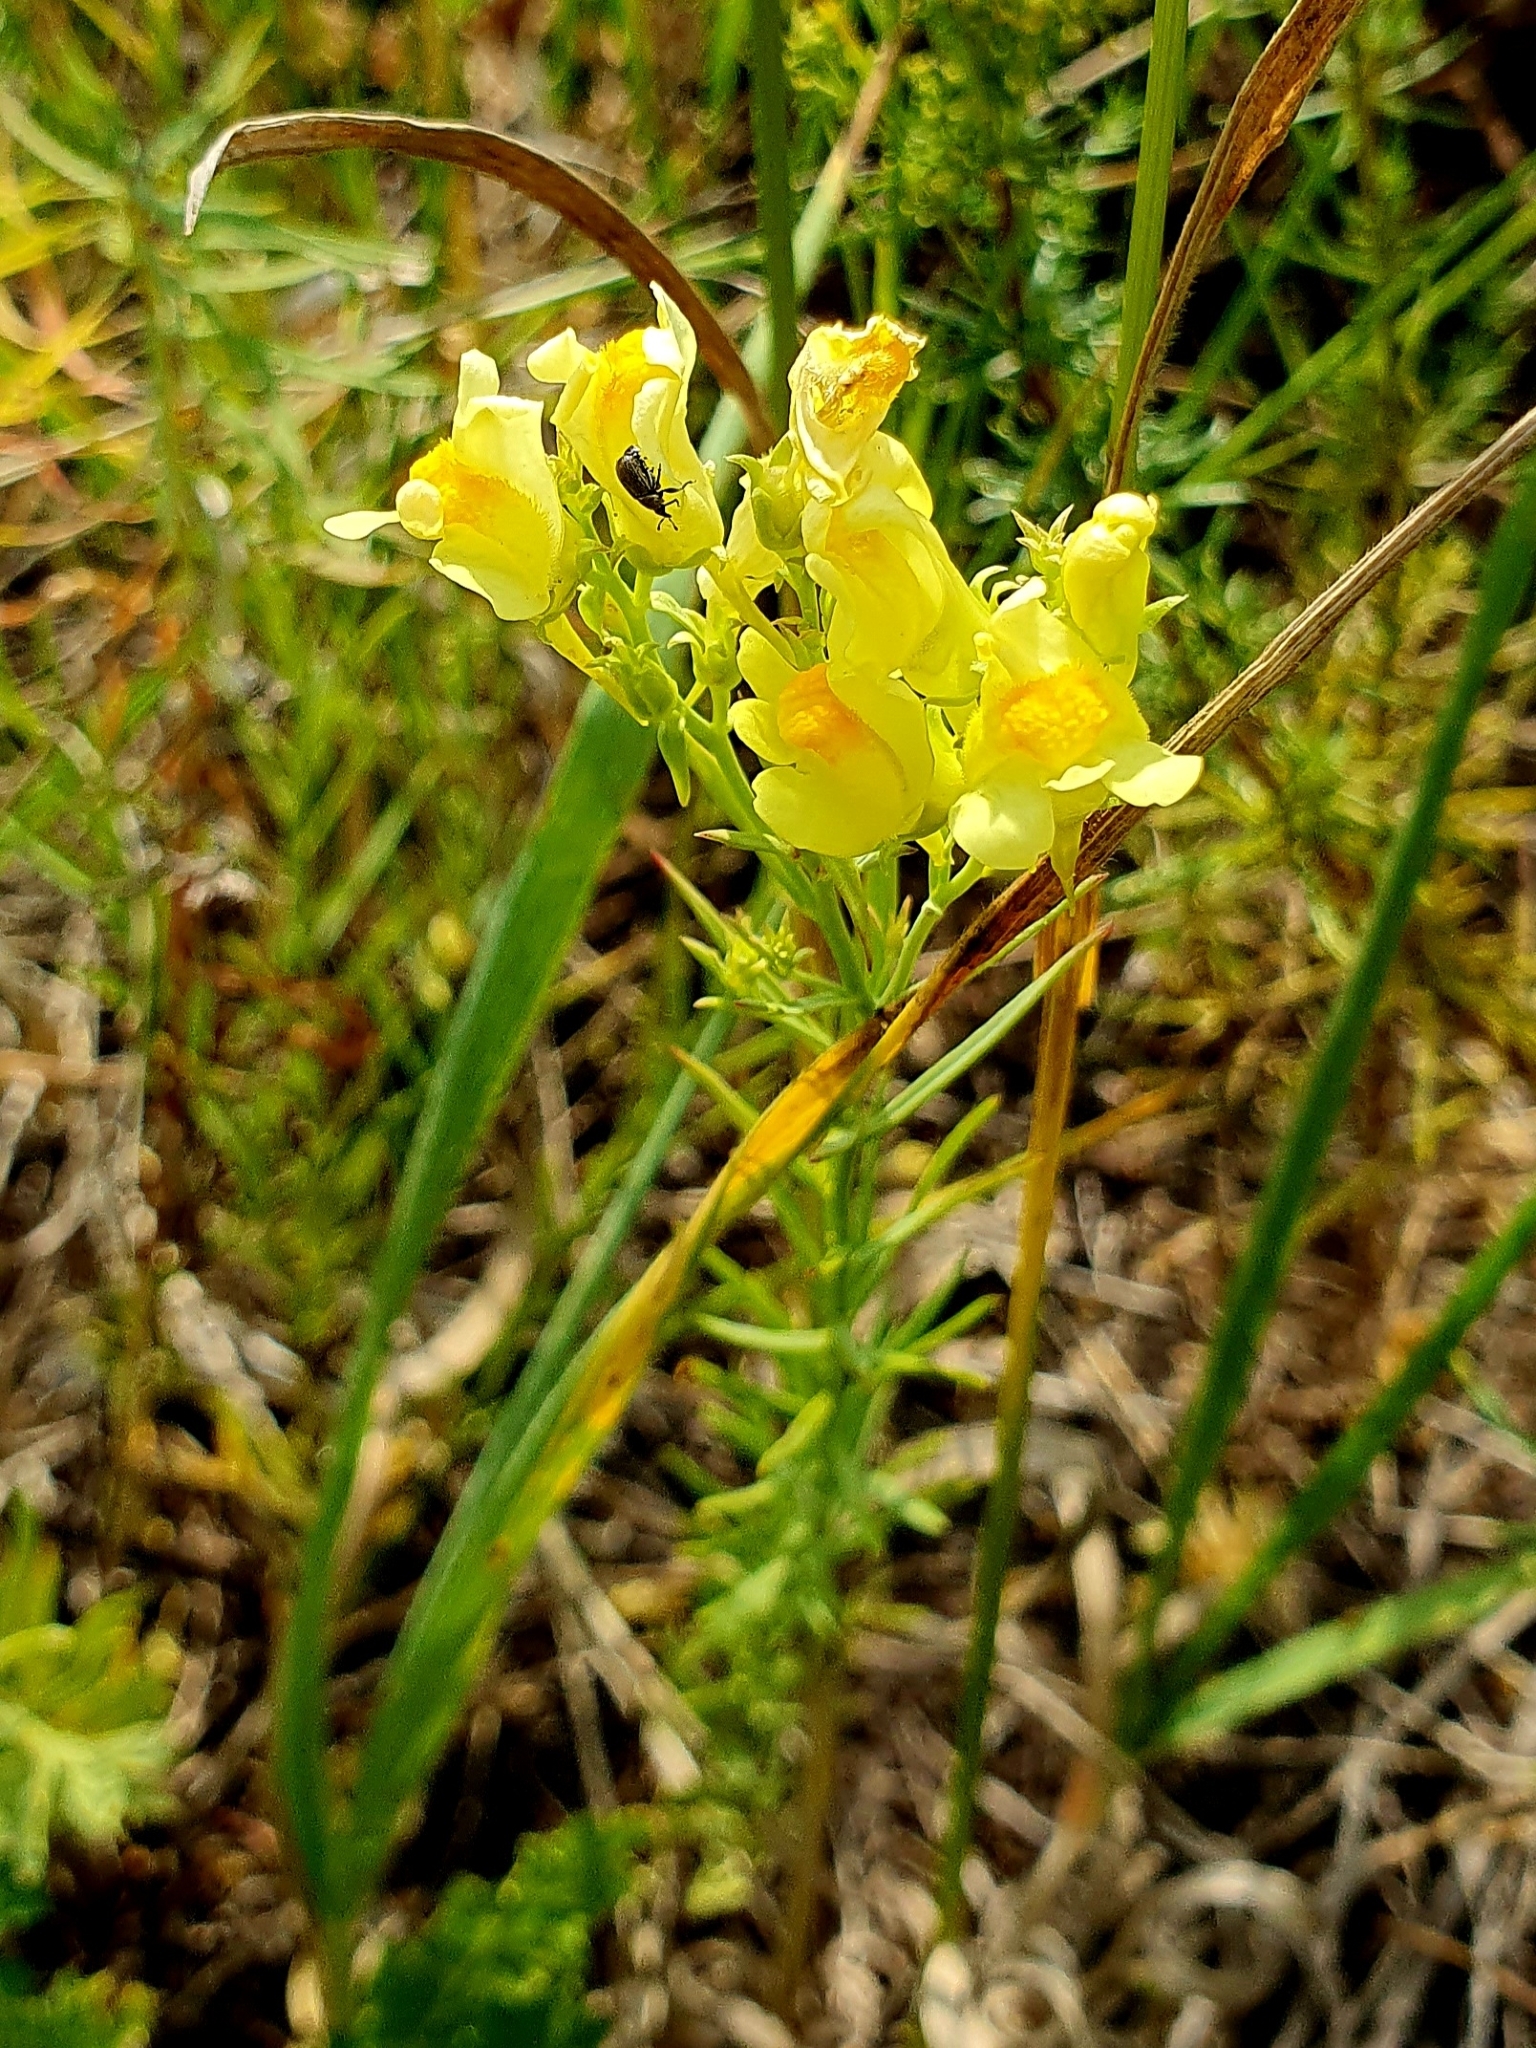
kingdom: Plantae
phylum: Tracheophyta
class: Magnoliopsida
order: Lamiales
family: Plantaginaceae
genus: Linaria
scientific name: Linaria vulgaris
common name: Butter and eggs
